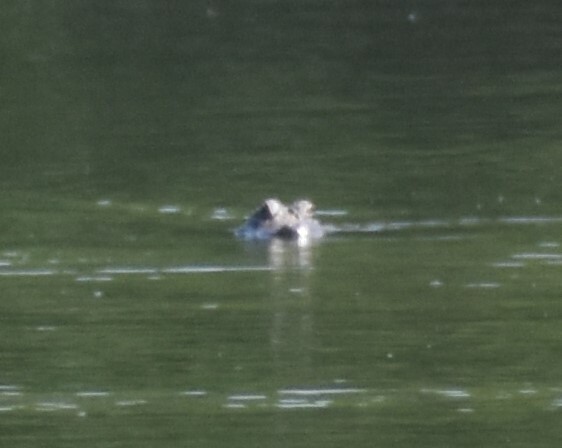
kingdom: Animalia
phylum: Chordata
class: Crocodylia
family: Alligatoridae
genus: Alligator
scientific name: Alligator mississippiensis
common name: American alligator
